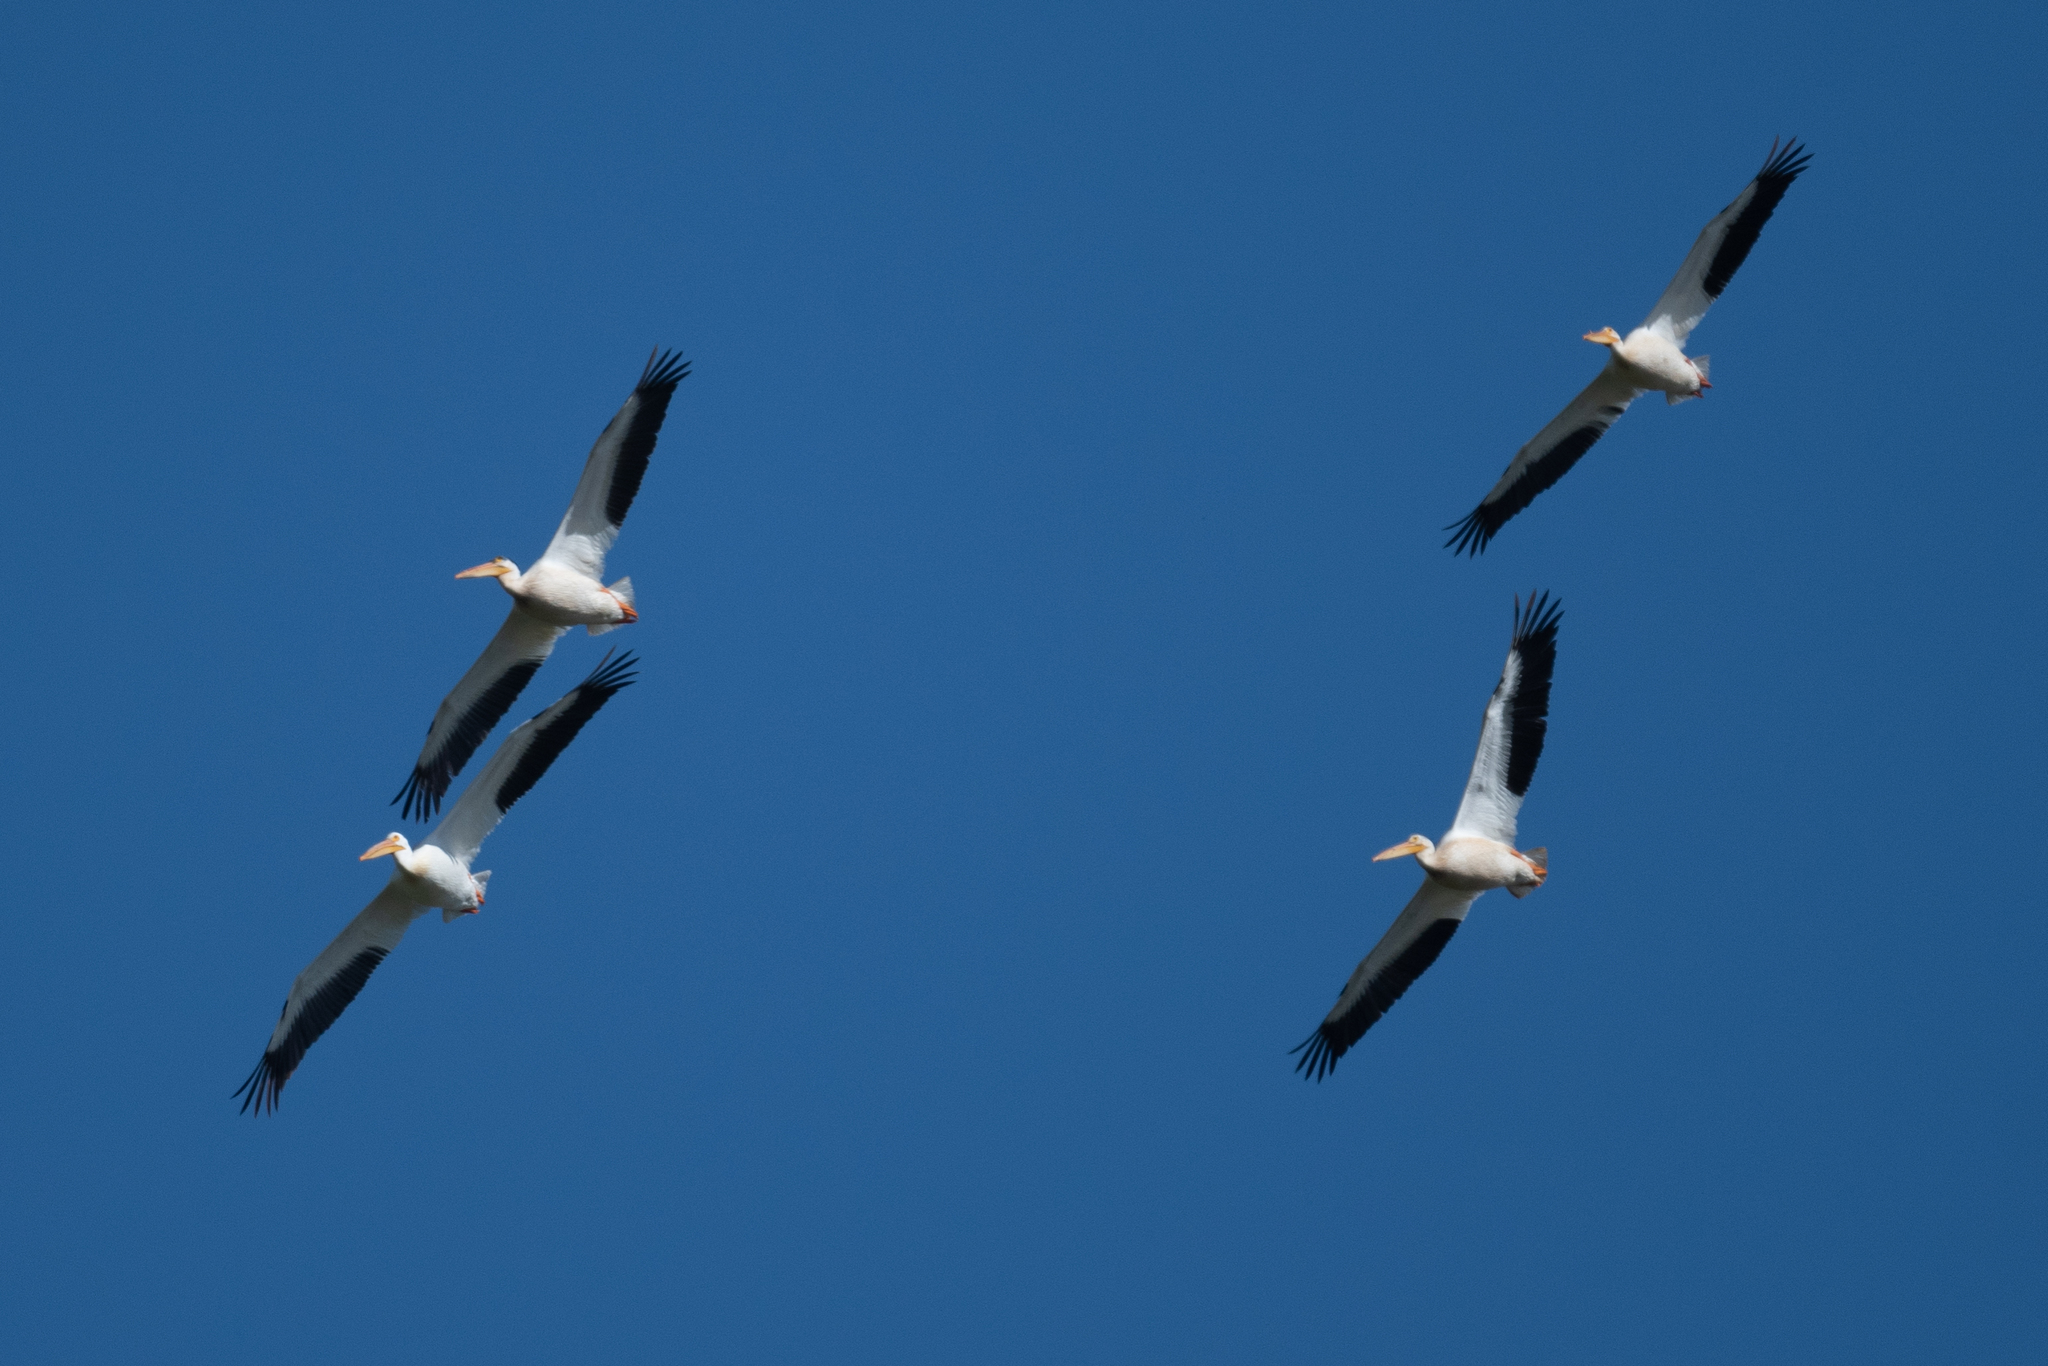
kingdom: Animalia
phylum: Chordata
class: Aves
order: Pelecaniformes
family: Pelecanidae
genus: Pelecanus
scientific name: Pelecanus erythrorhynchos
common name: American white pelican
